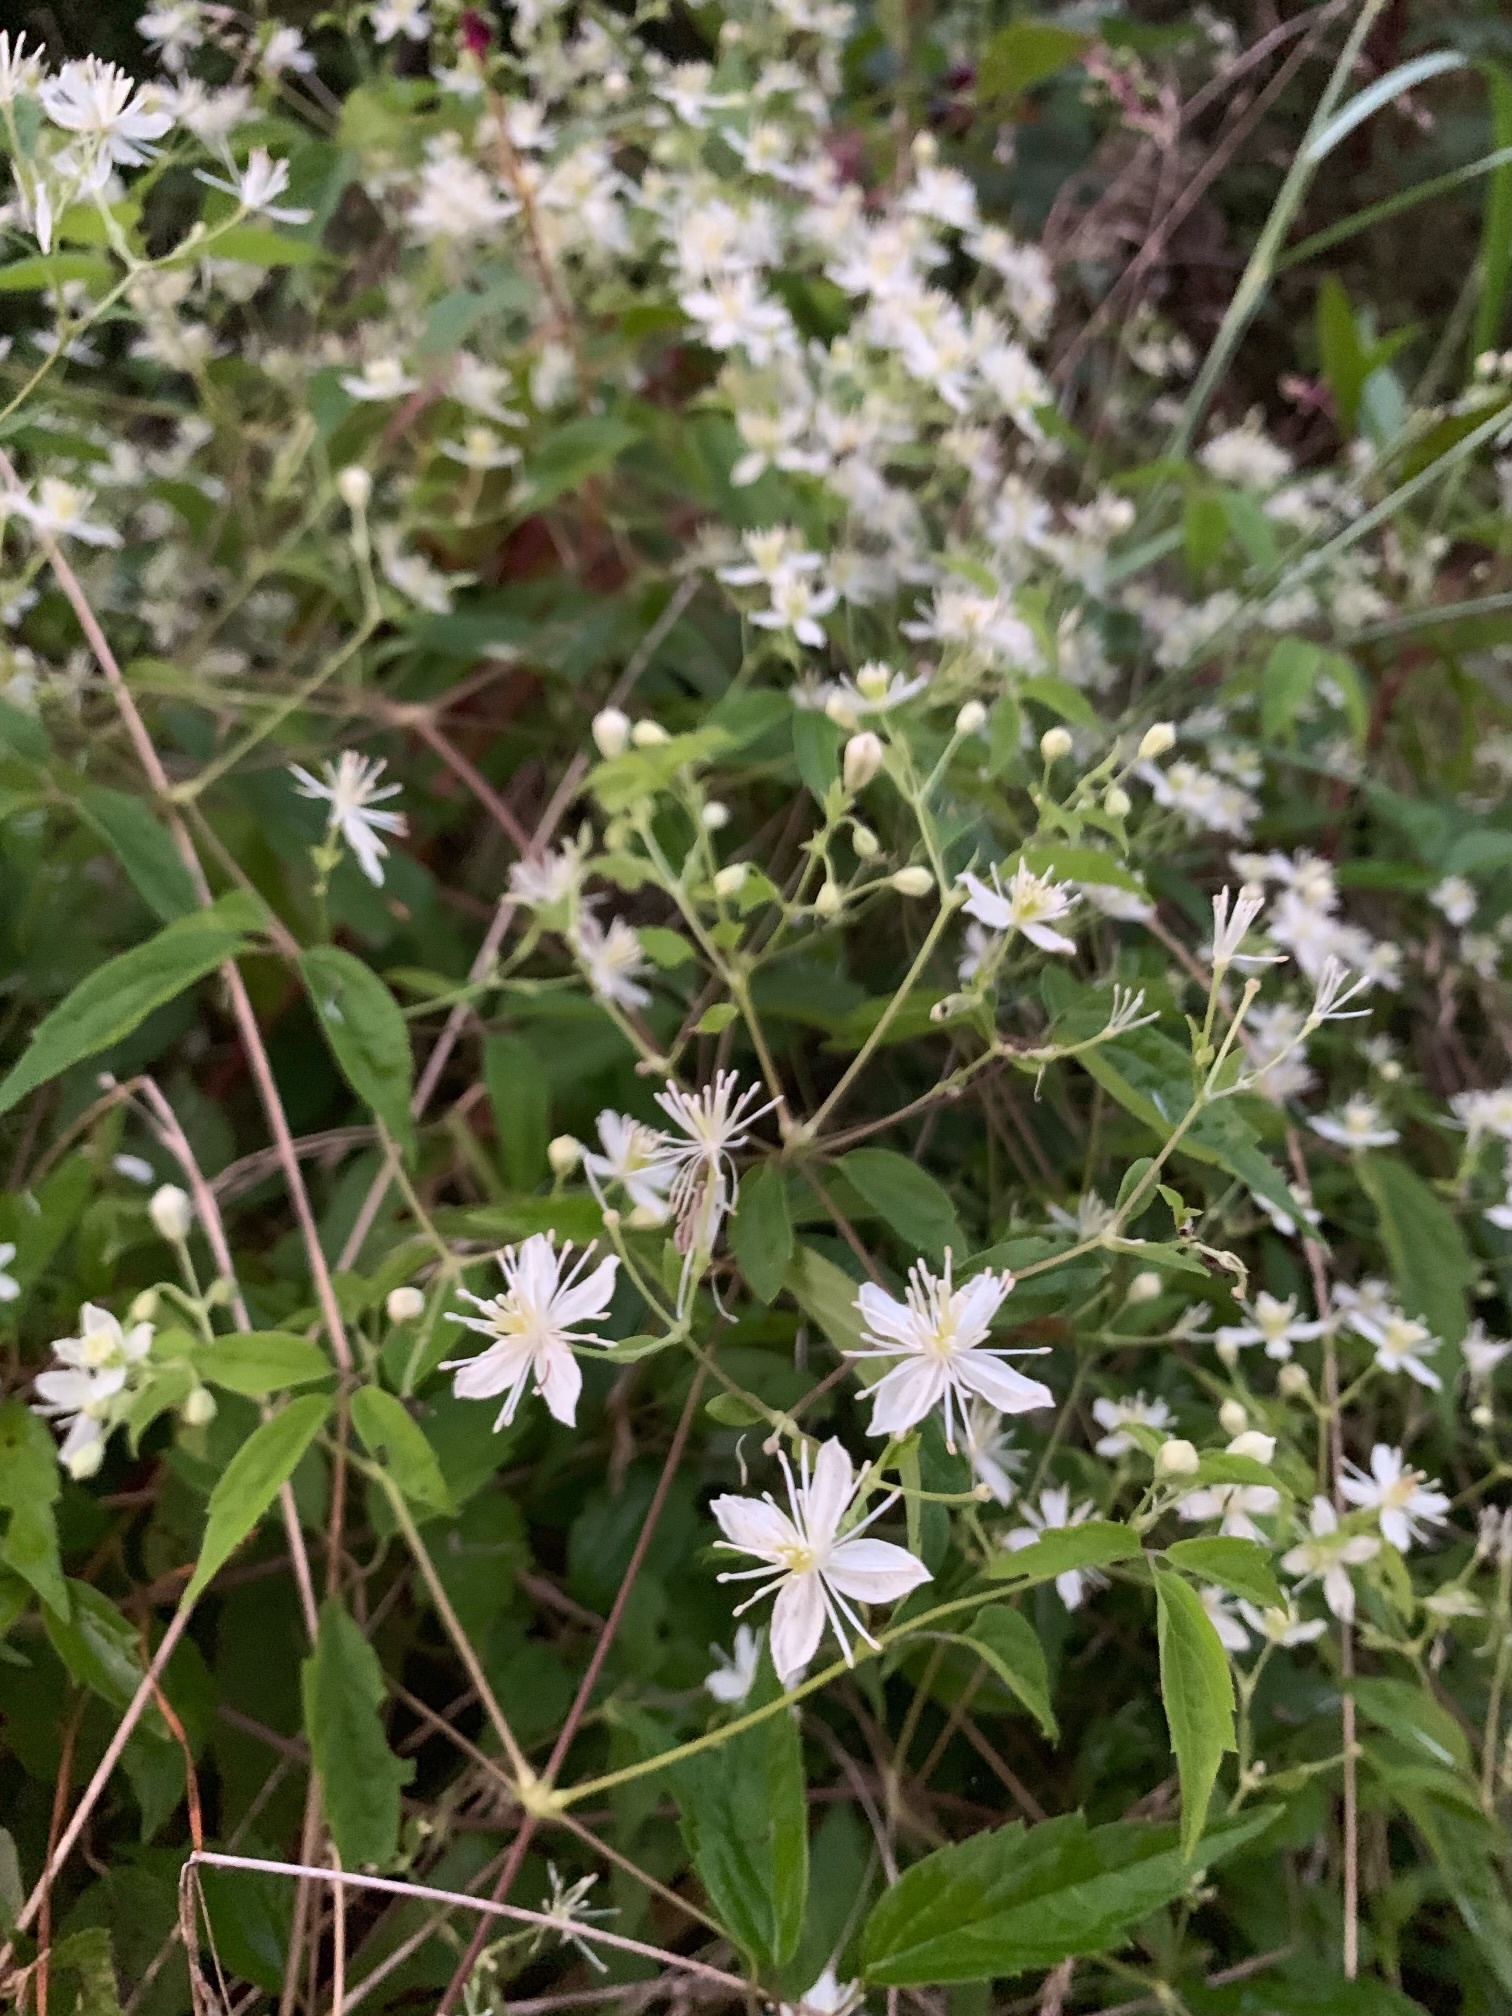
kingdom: Plantae
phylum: Tracheophyta
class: Magnoliopsida
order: Ranunculales
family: Ranunculaceae
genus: Clematis
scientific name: Clematis virginiana
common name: Virgin's-bower
